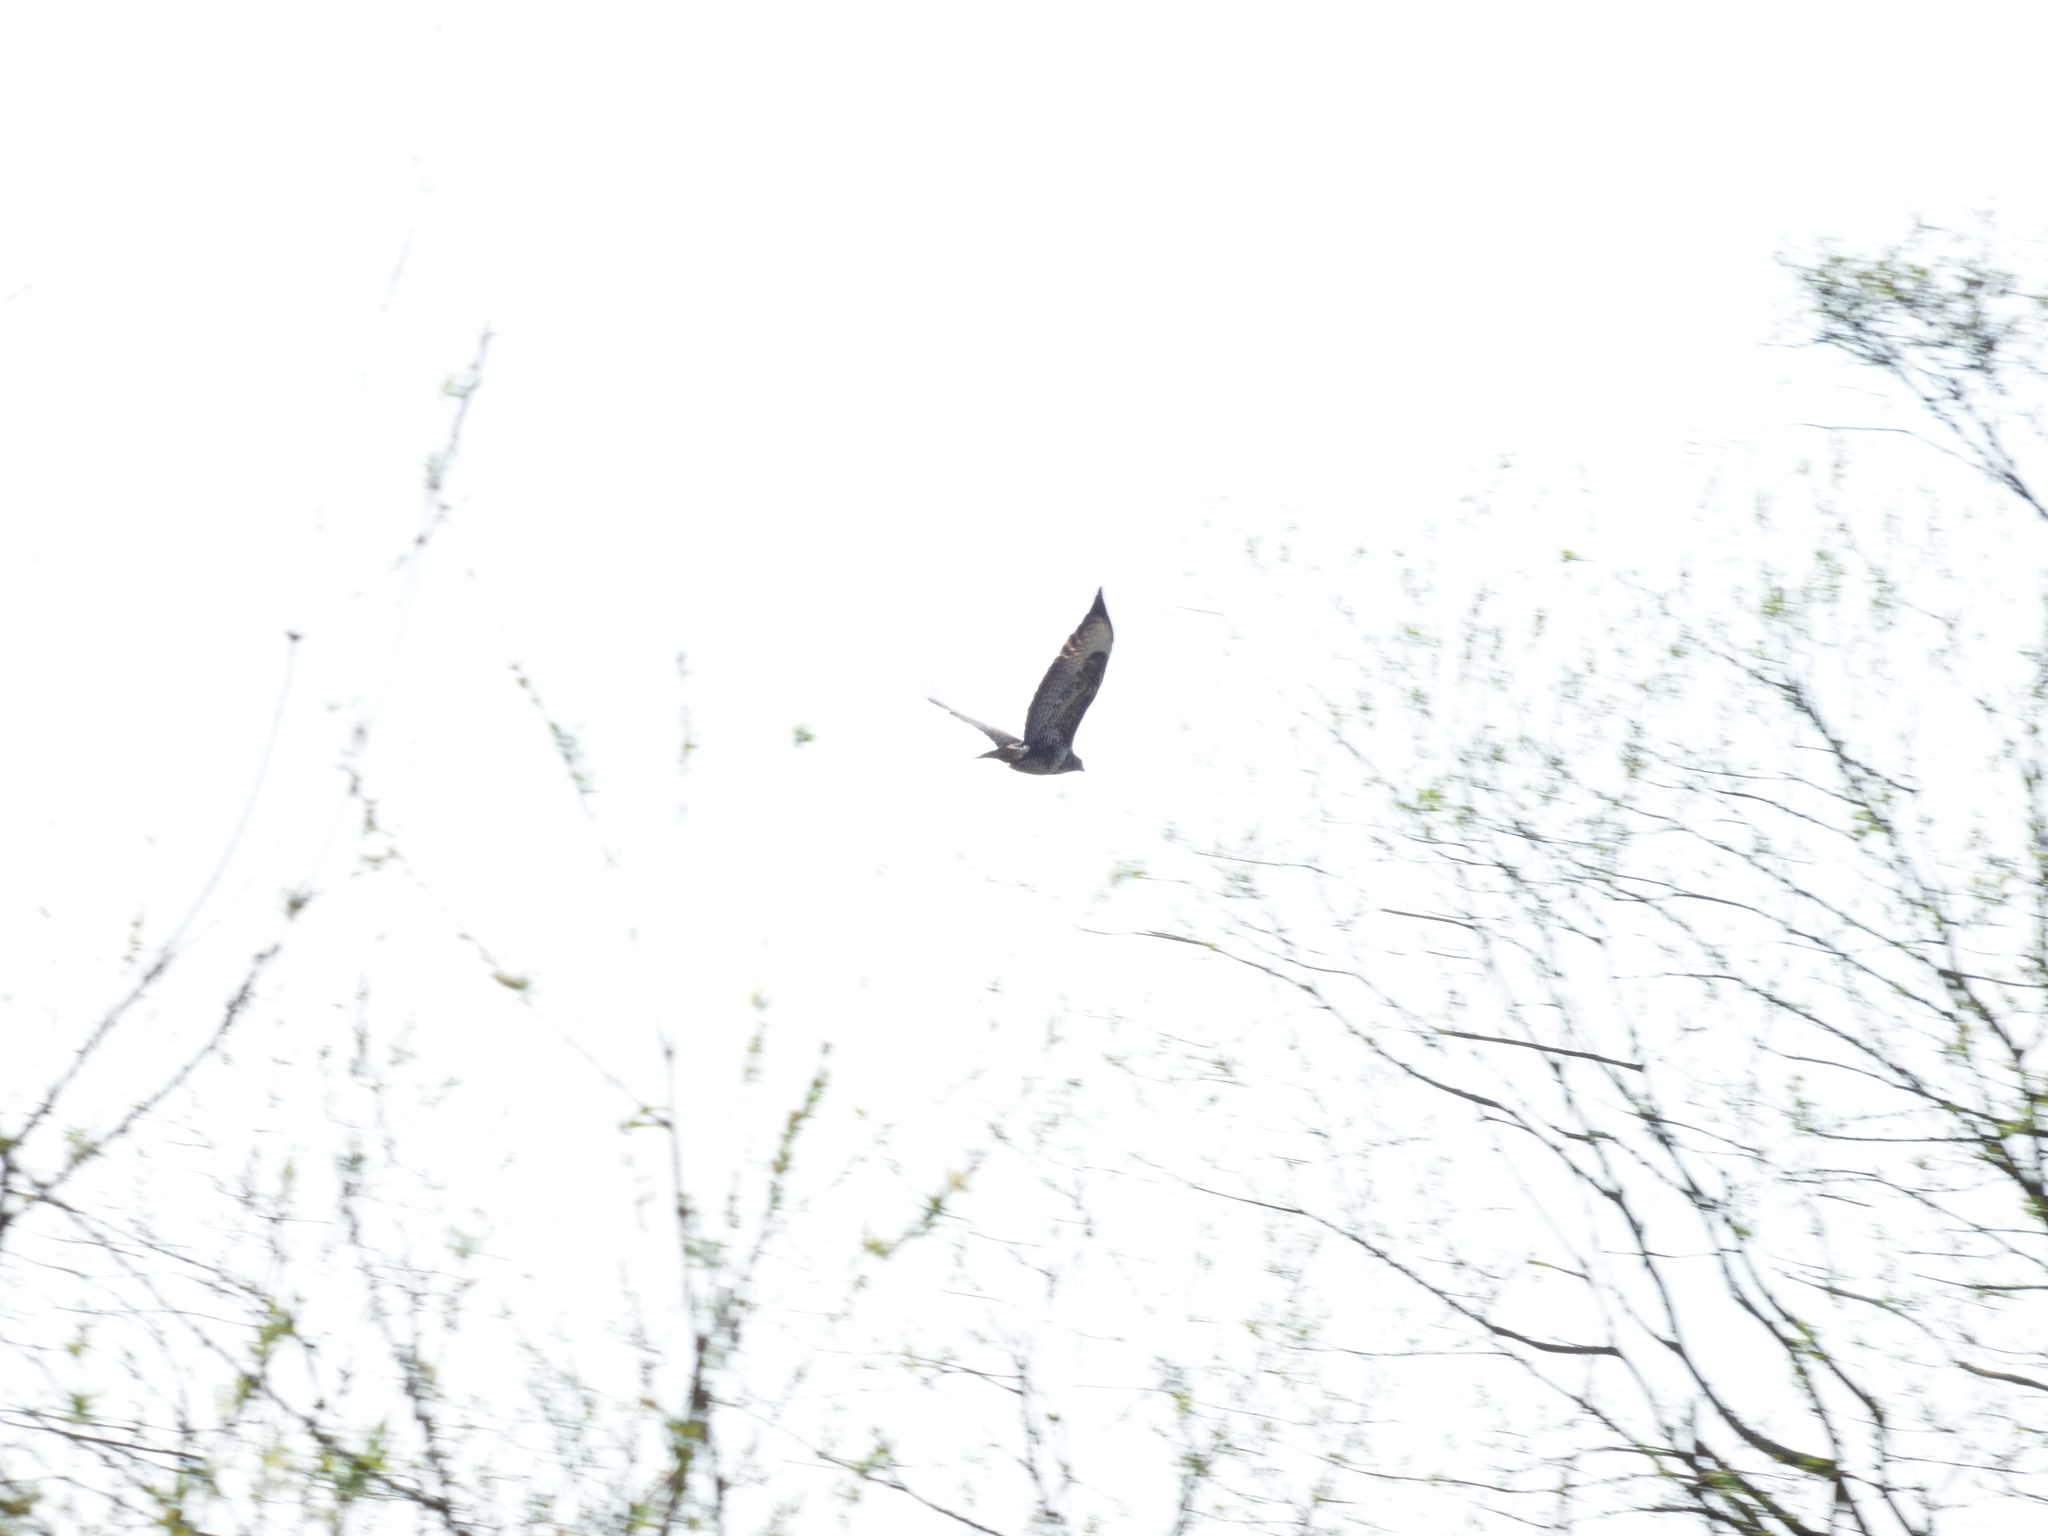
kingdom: Animalia
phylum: Chordata
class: Aves
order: Accipitriformes
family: Accipitridae
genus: Buteo
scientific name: Buteo buteo
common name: Common buzzard
